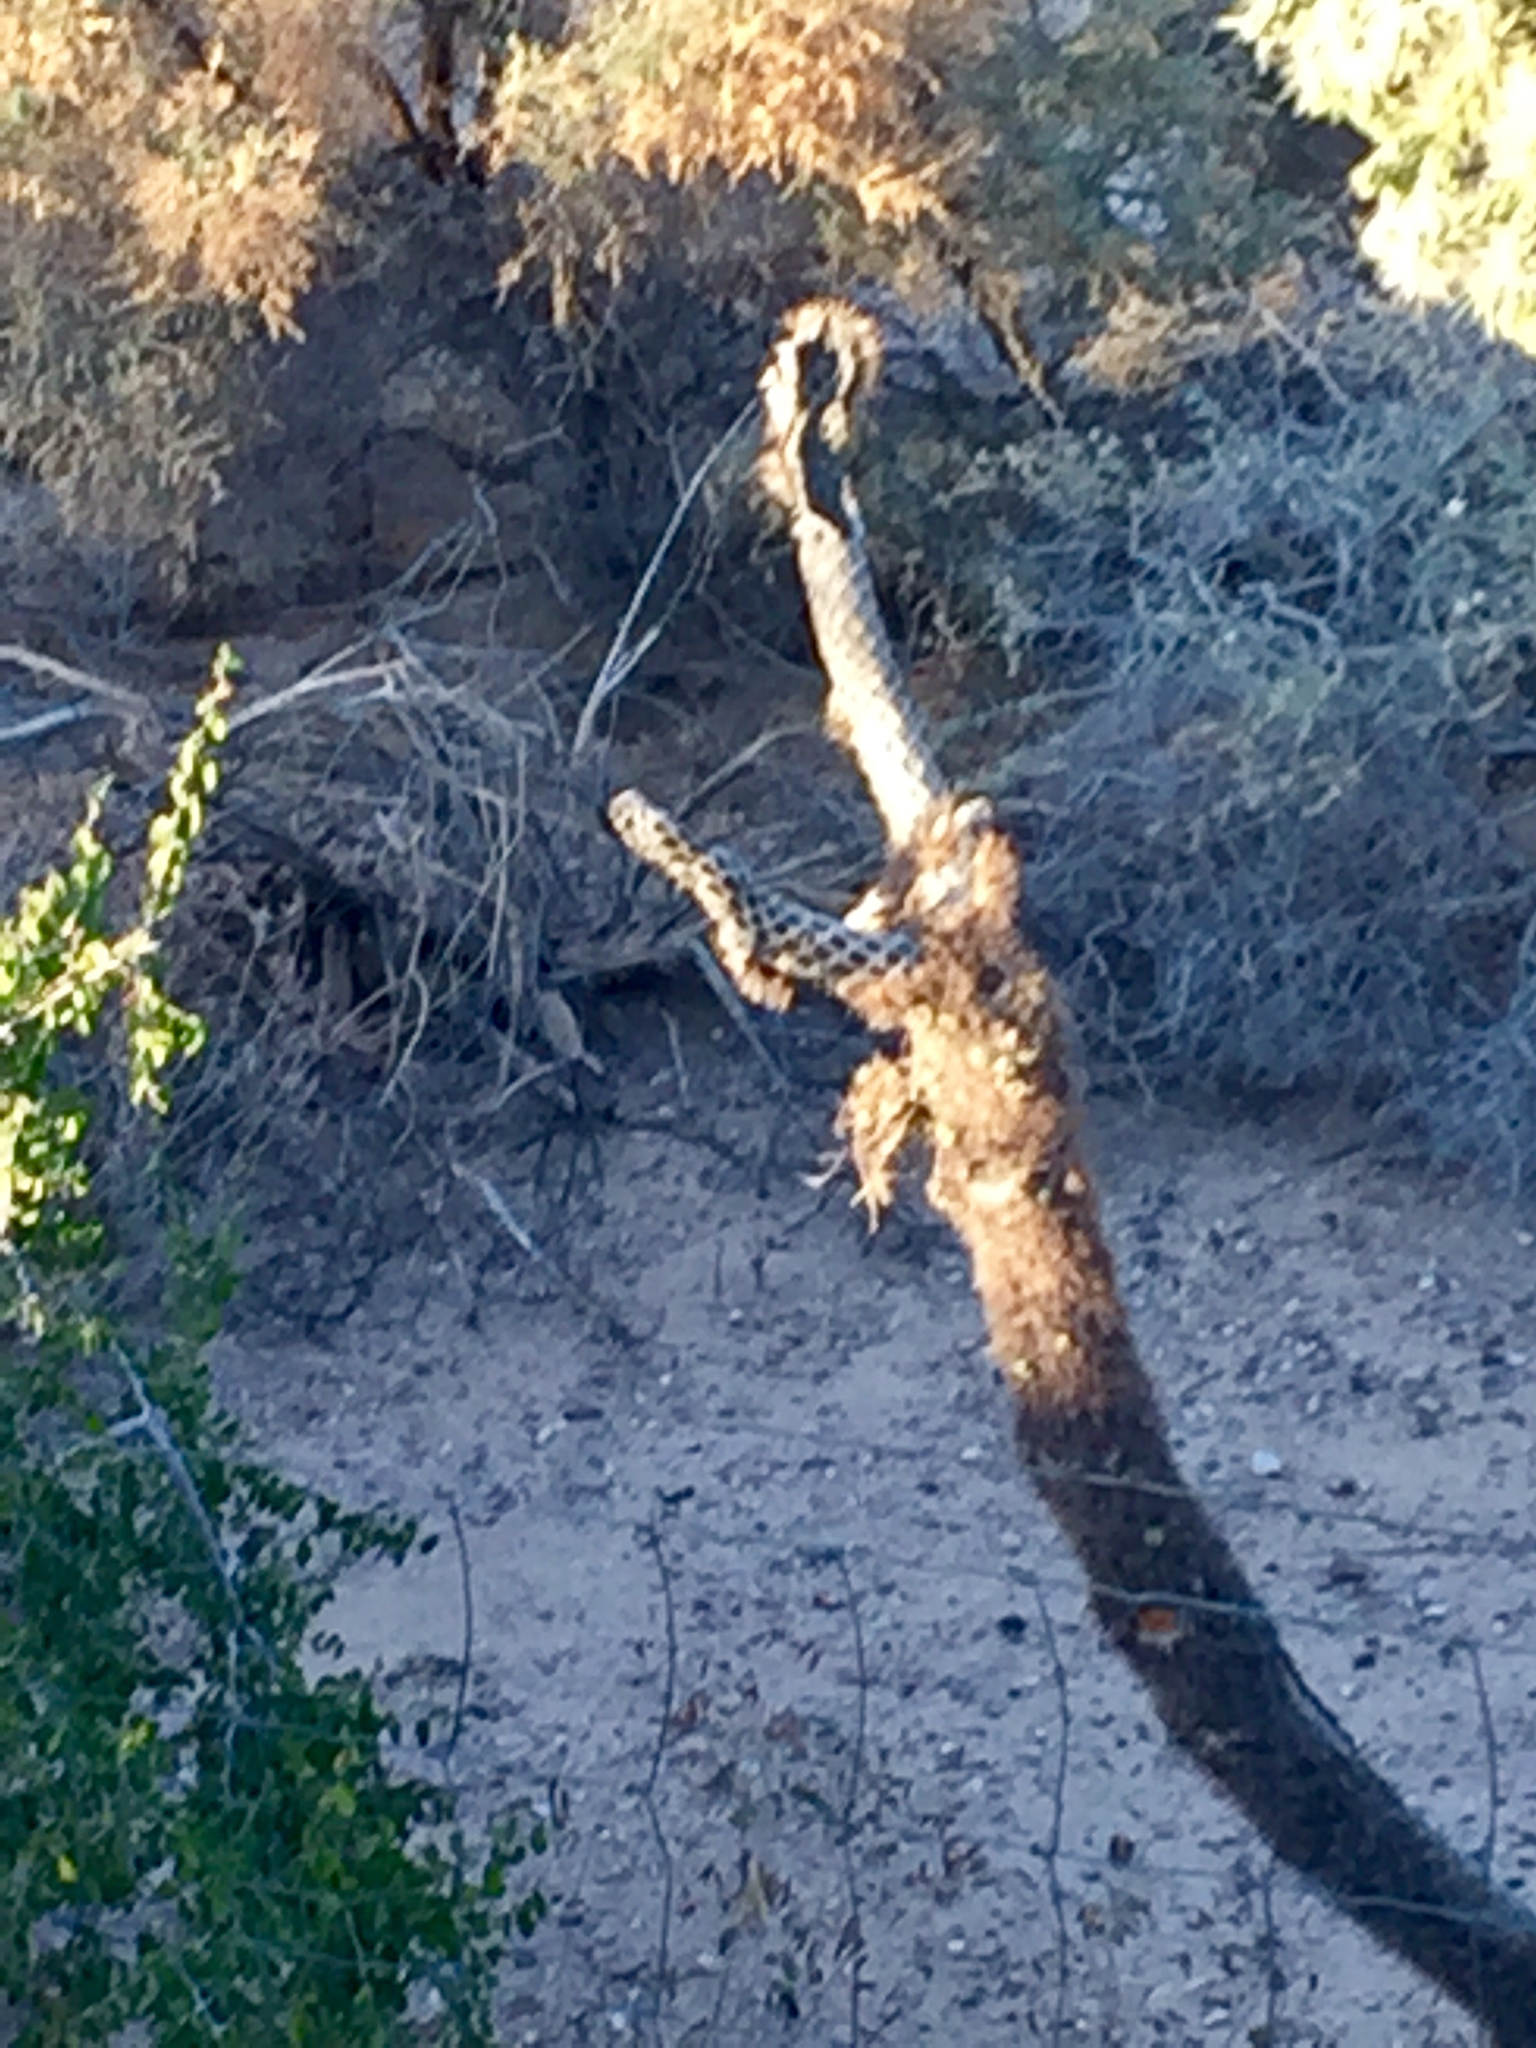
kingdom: Plantae
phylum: Tracheophyta
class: Magnoliopsida
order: Caryophyllales
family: Cactaceae
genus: Cylindropuntia
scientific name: Cylindropuntia fulgida
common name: Jumping cholla
